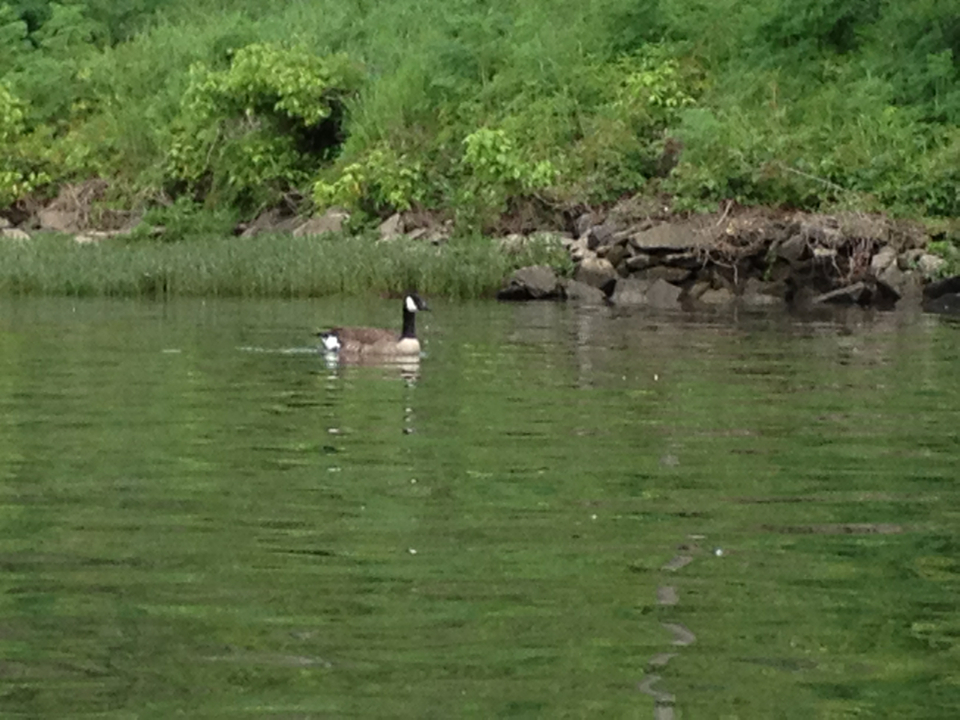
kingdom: Animalia
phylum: Chordata
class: Aves
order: Anseriformes
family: Anatidae
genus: Branta
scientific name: Branta canadensis
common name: Canada goose
